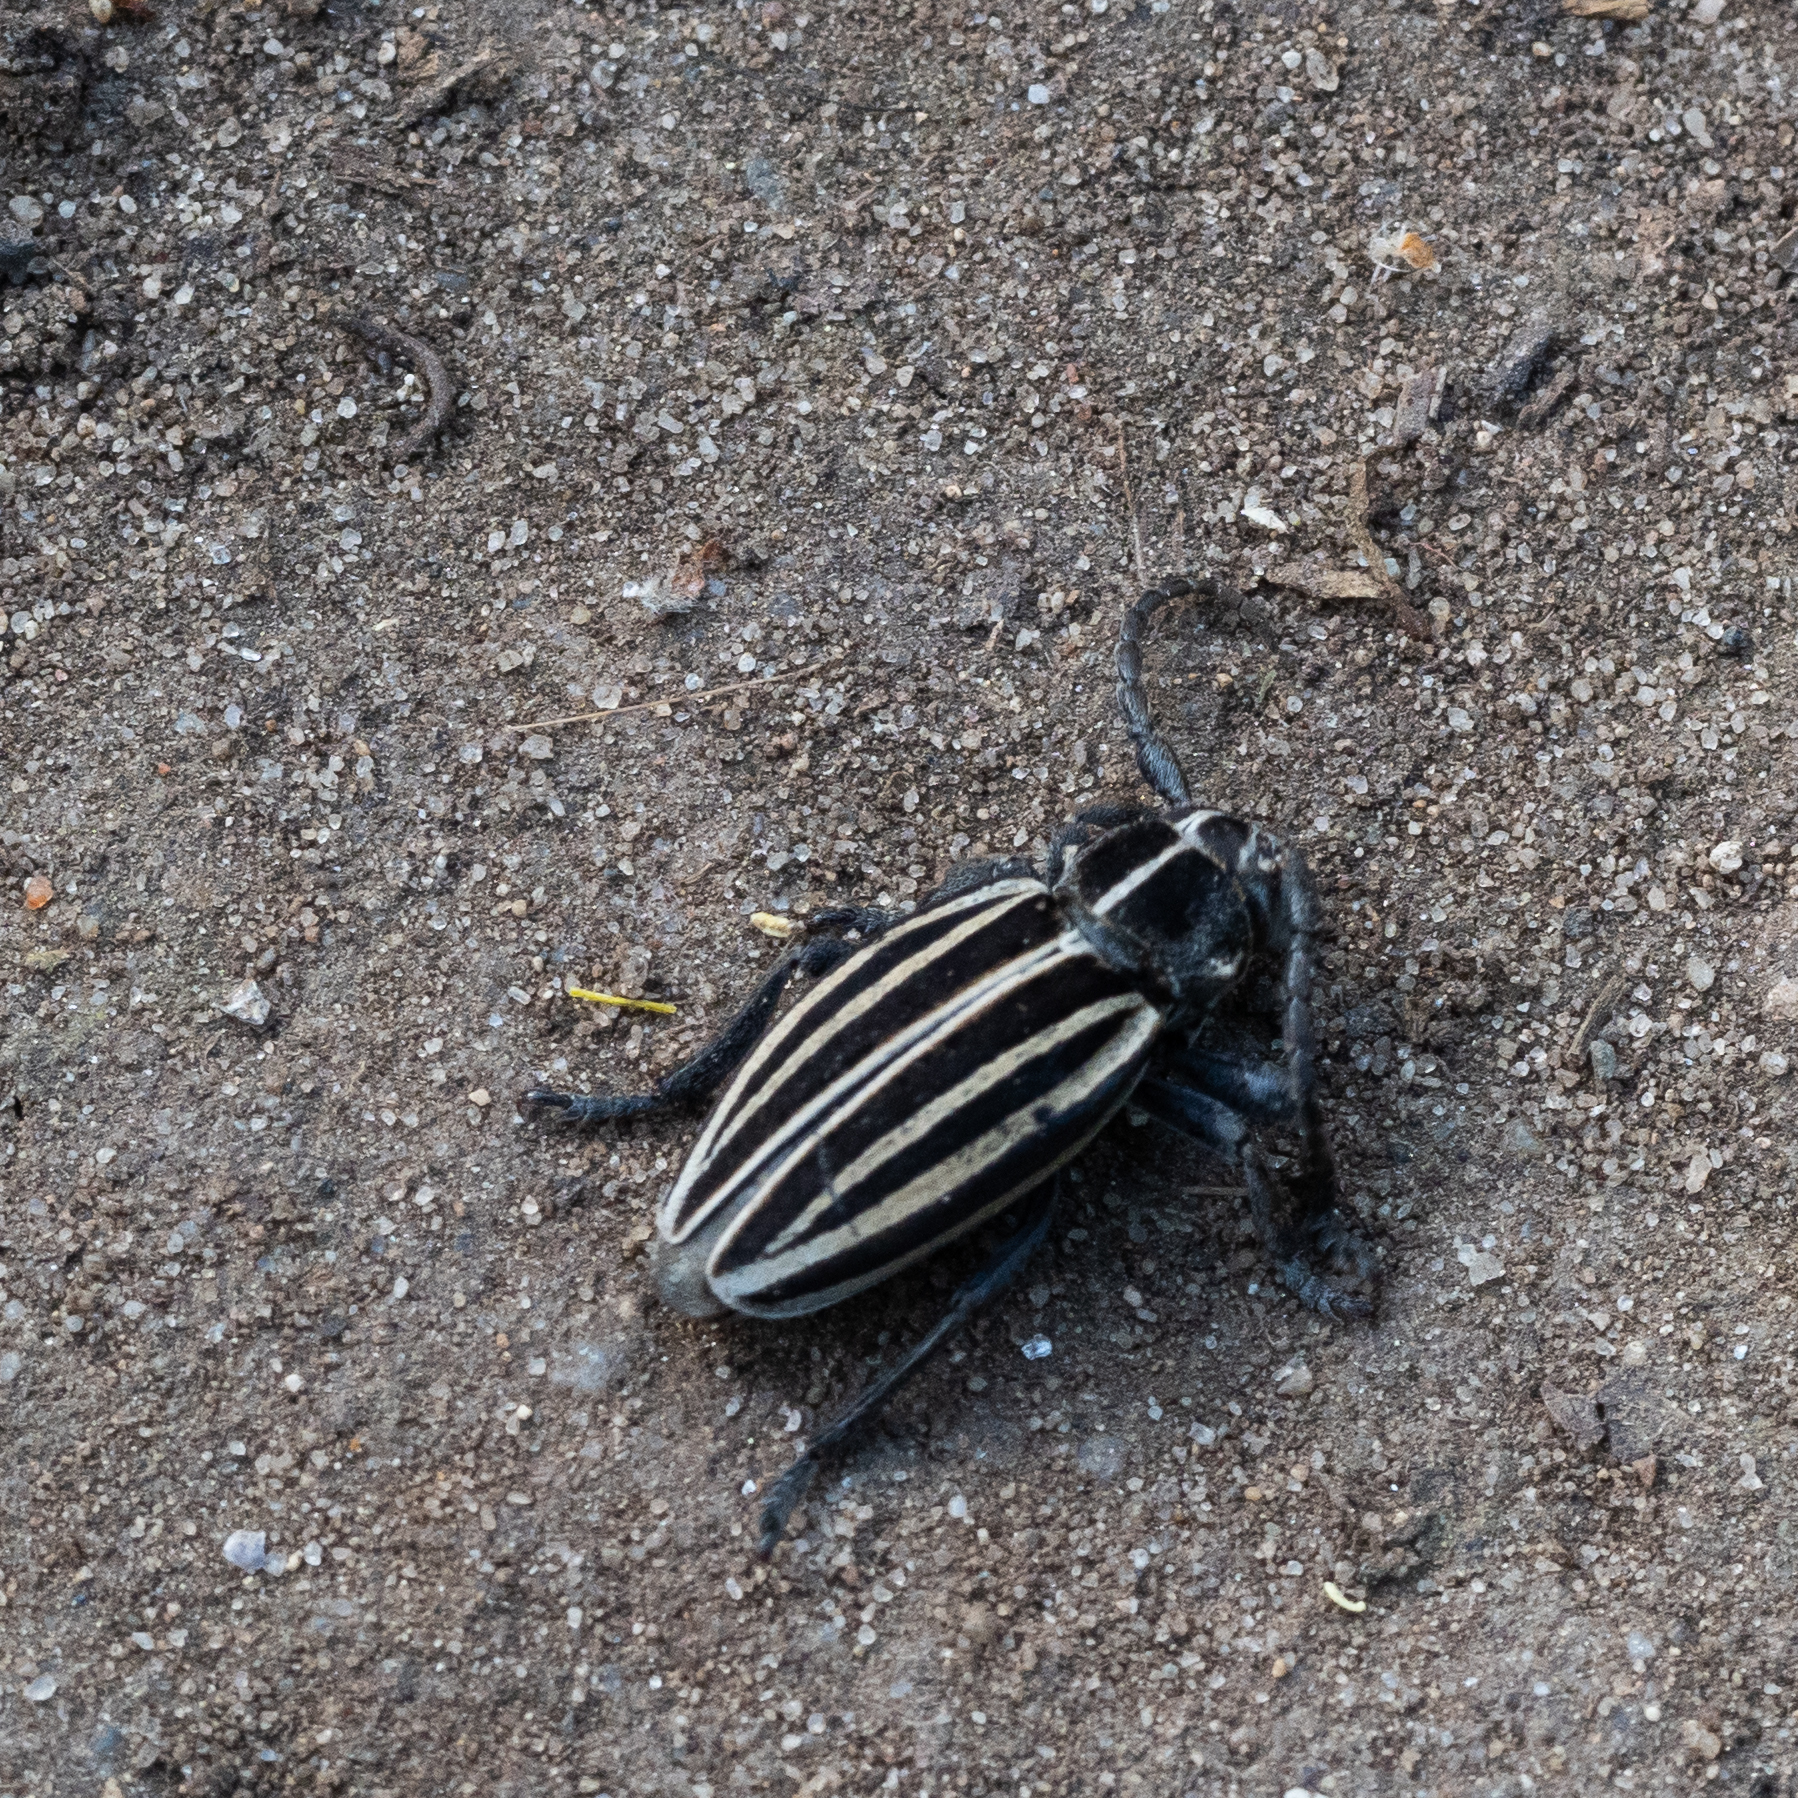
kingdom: Animalia
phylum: Arthropoda
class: Insecta
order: Coleoptera
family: Cerambycidae
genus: Dorcadion
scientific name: Dorcadion scopolii
